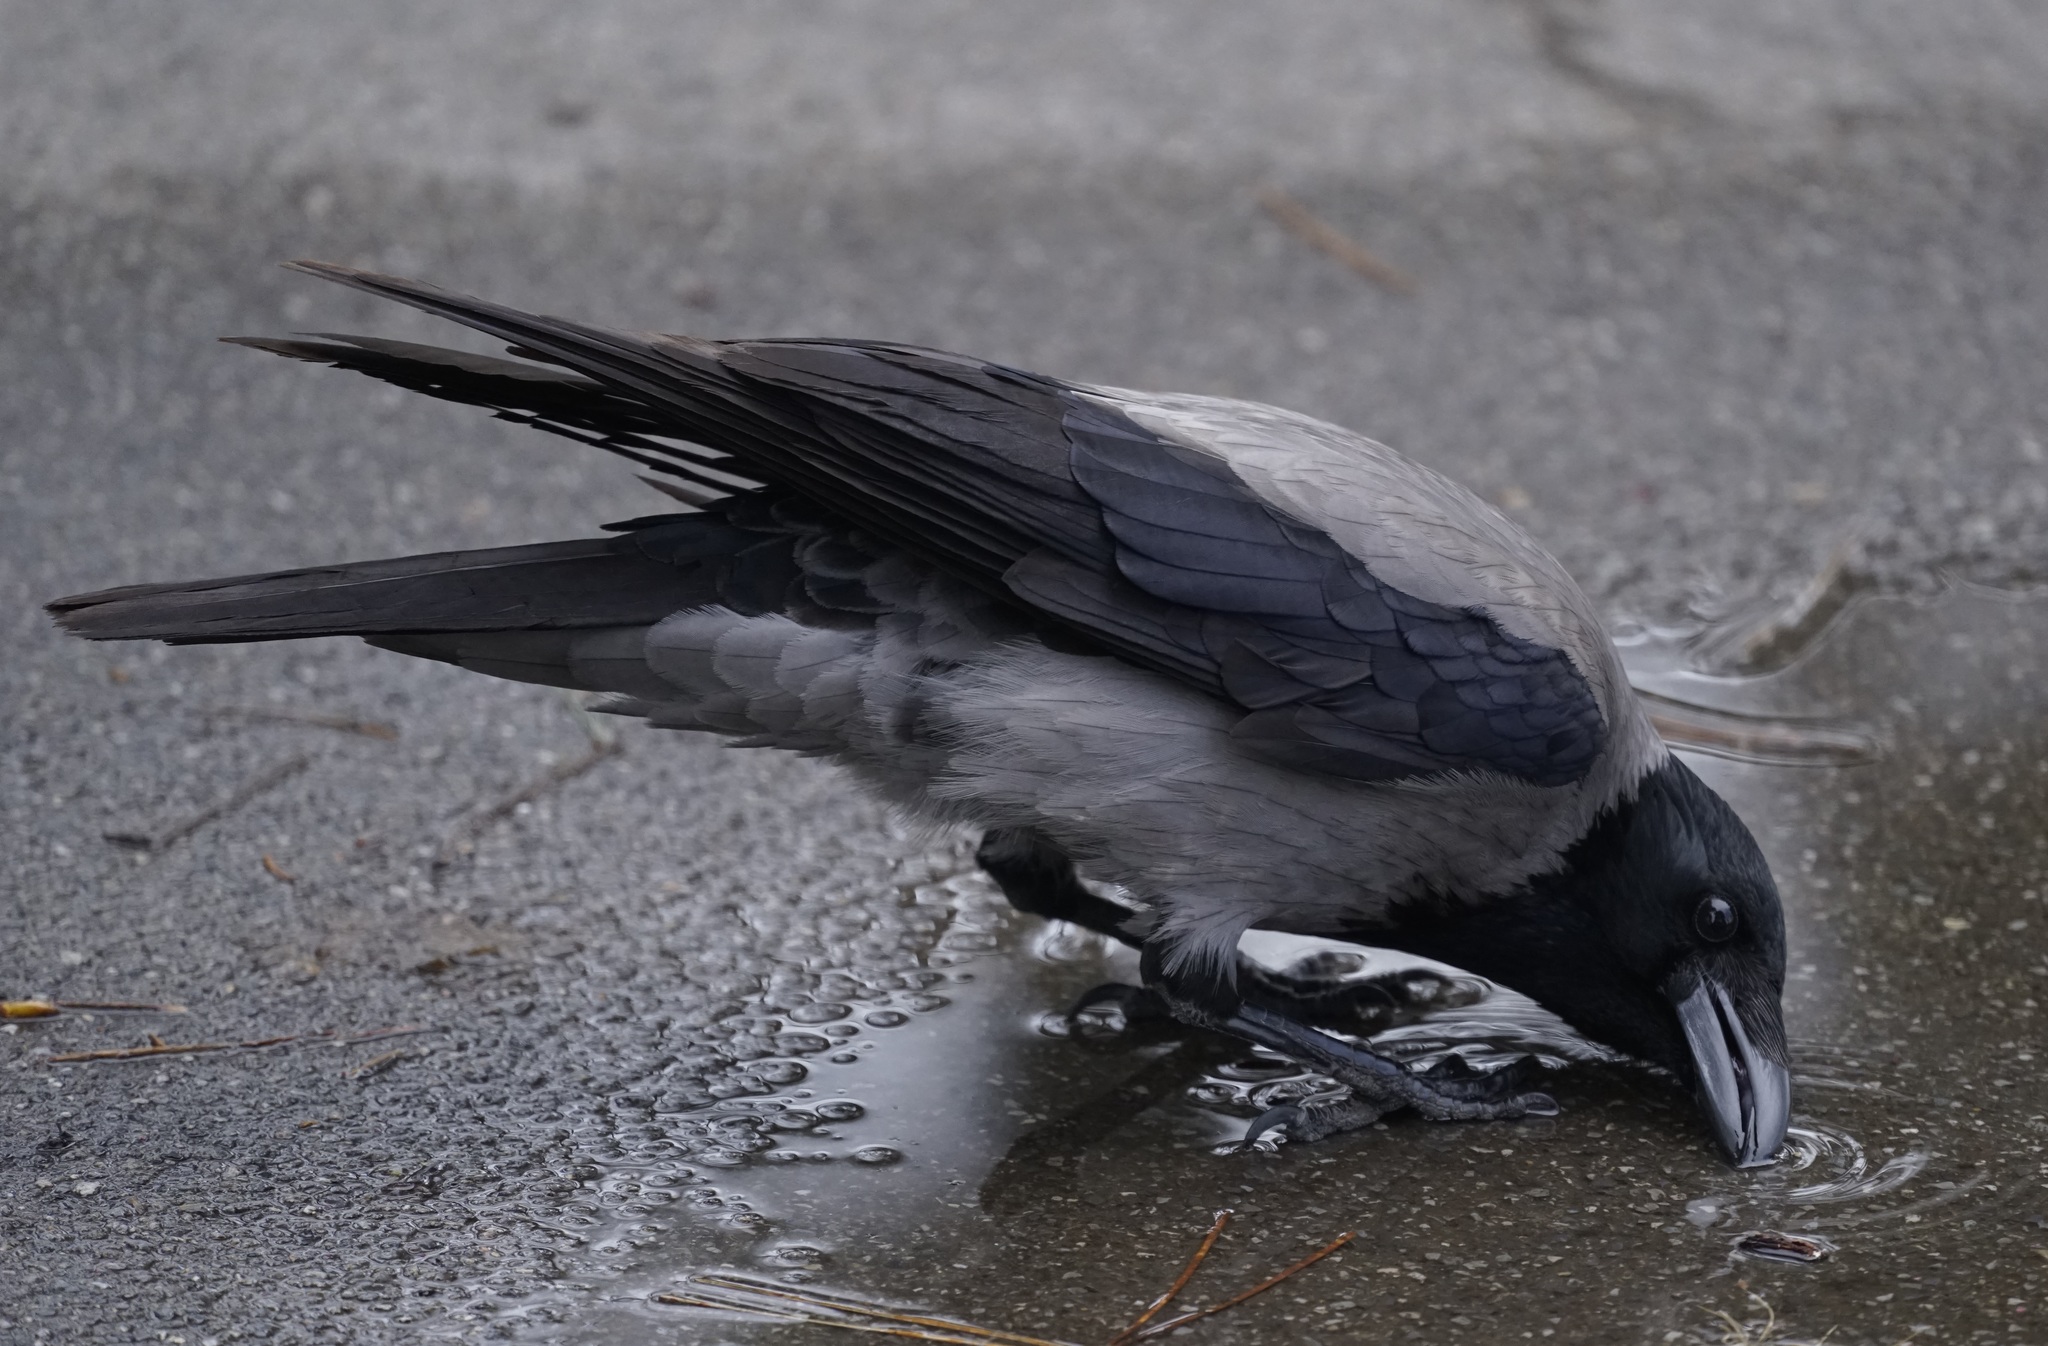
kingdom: Animalia
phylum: Chordata
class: Aves
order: Passeriformes
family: Corvidae
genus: Corvus
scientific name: Corvus cornix
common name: Hooded crow
